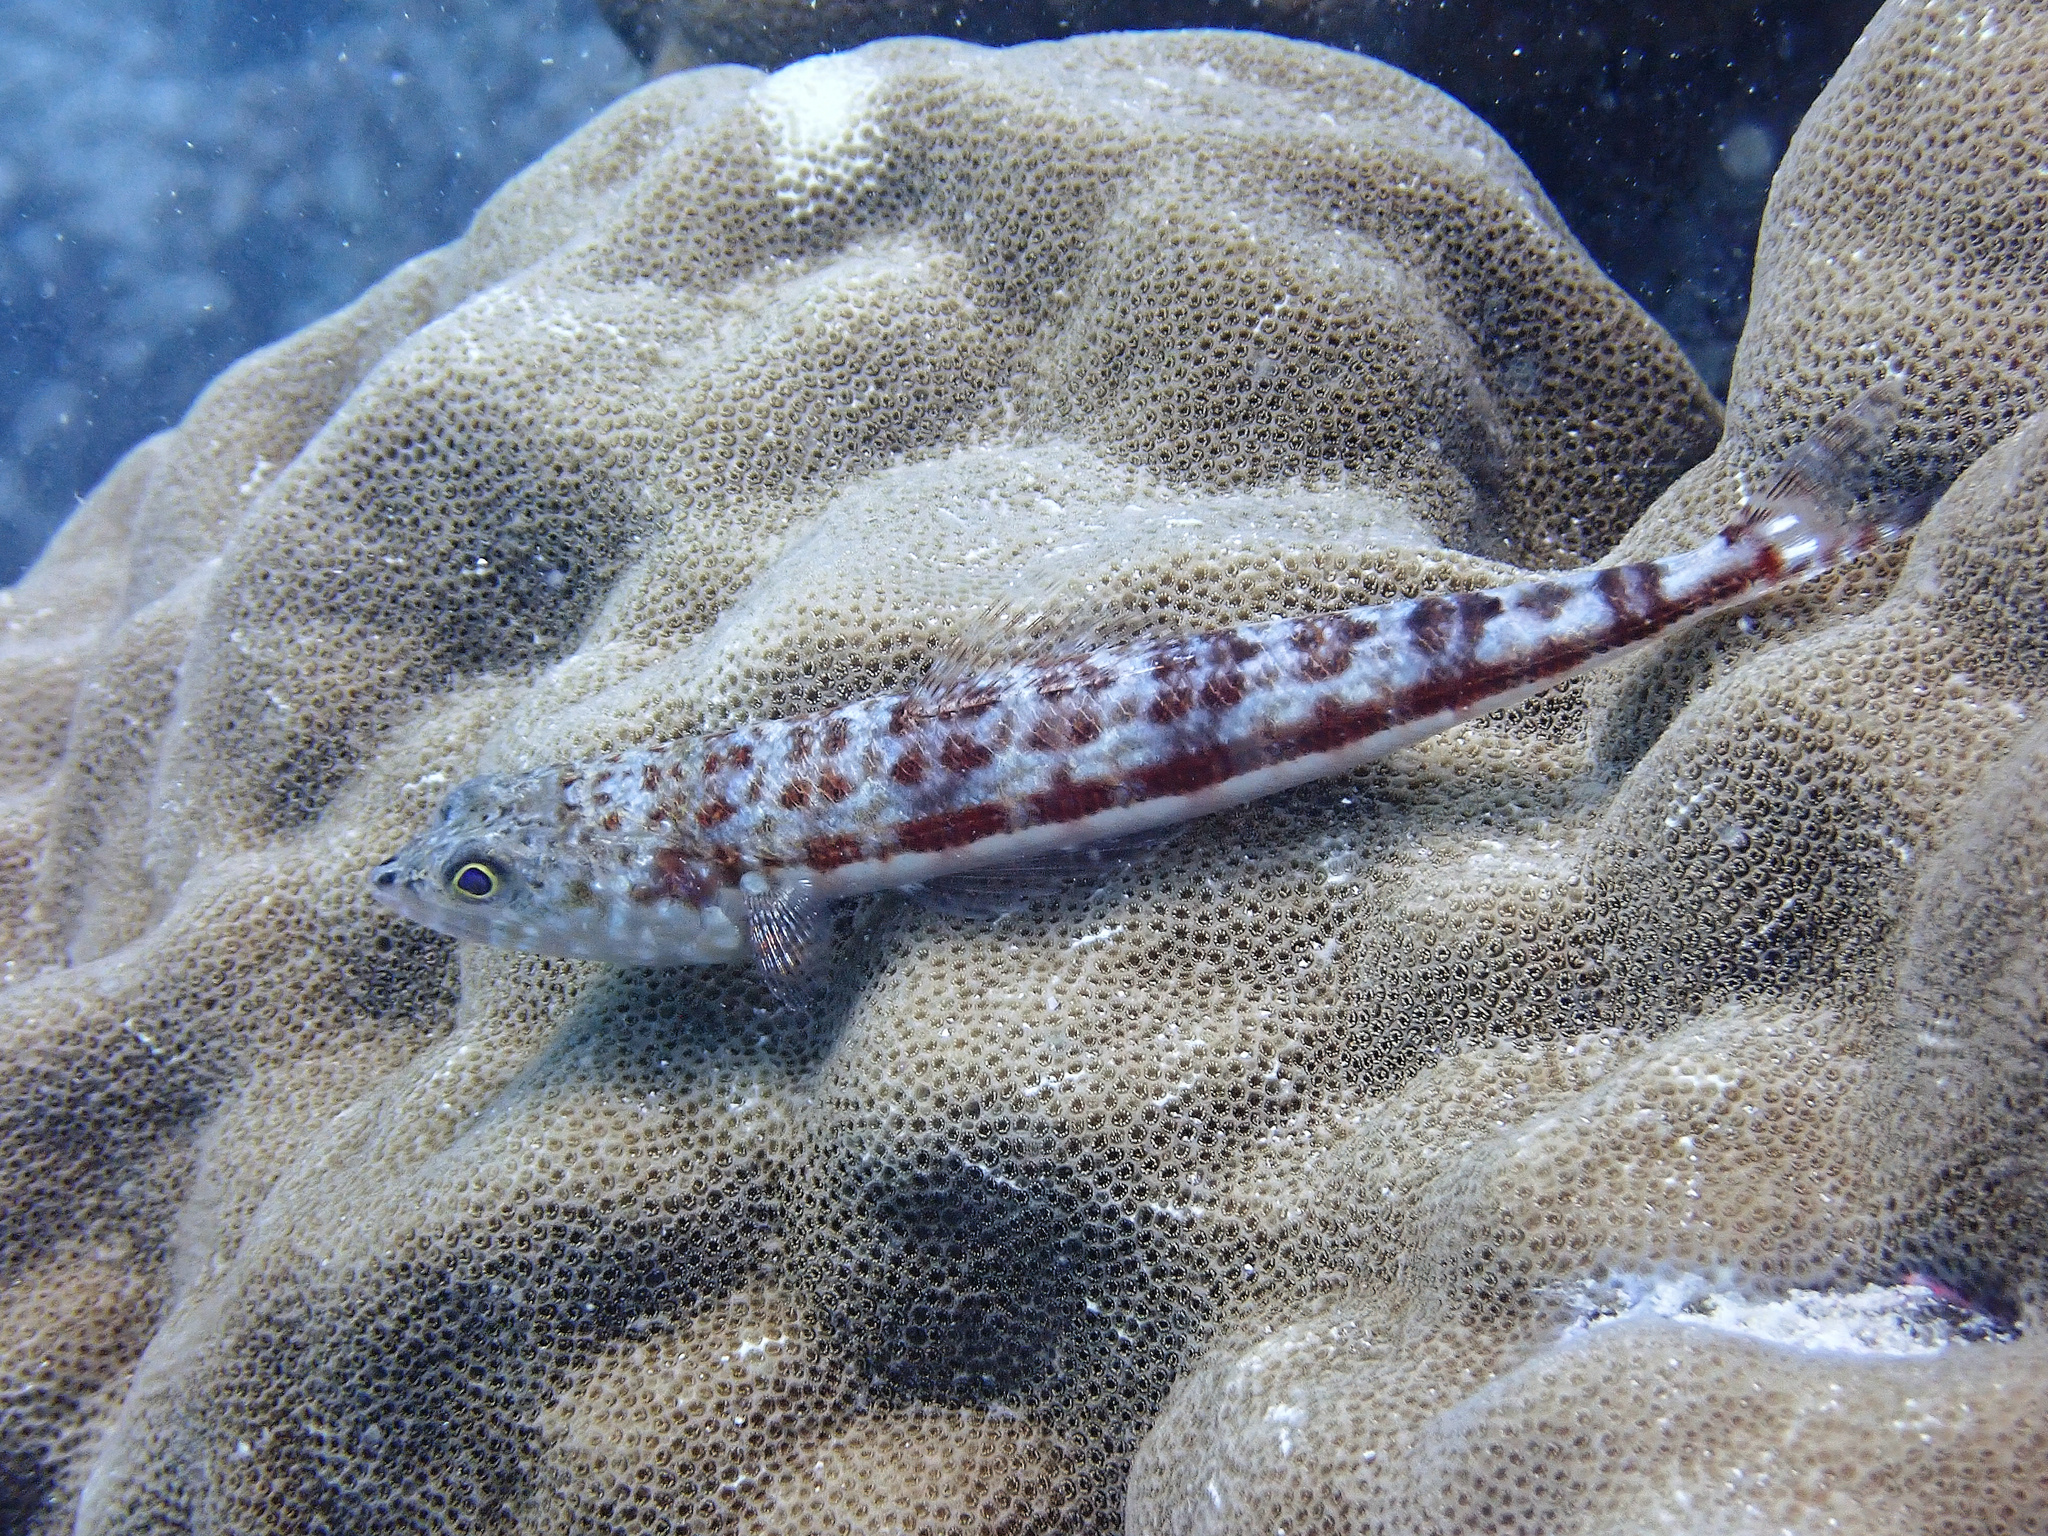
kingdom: Animalia
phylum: Chordata
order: Aulopiformes
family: Synodontidae
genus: Synodus
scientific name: Synodus variegatus
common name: Variegated lizardfish
